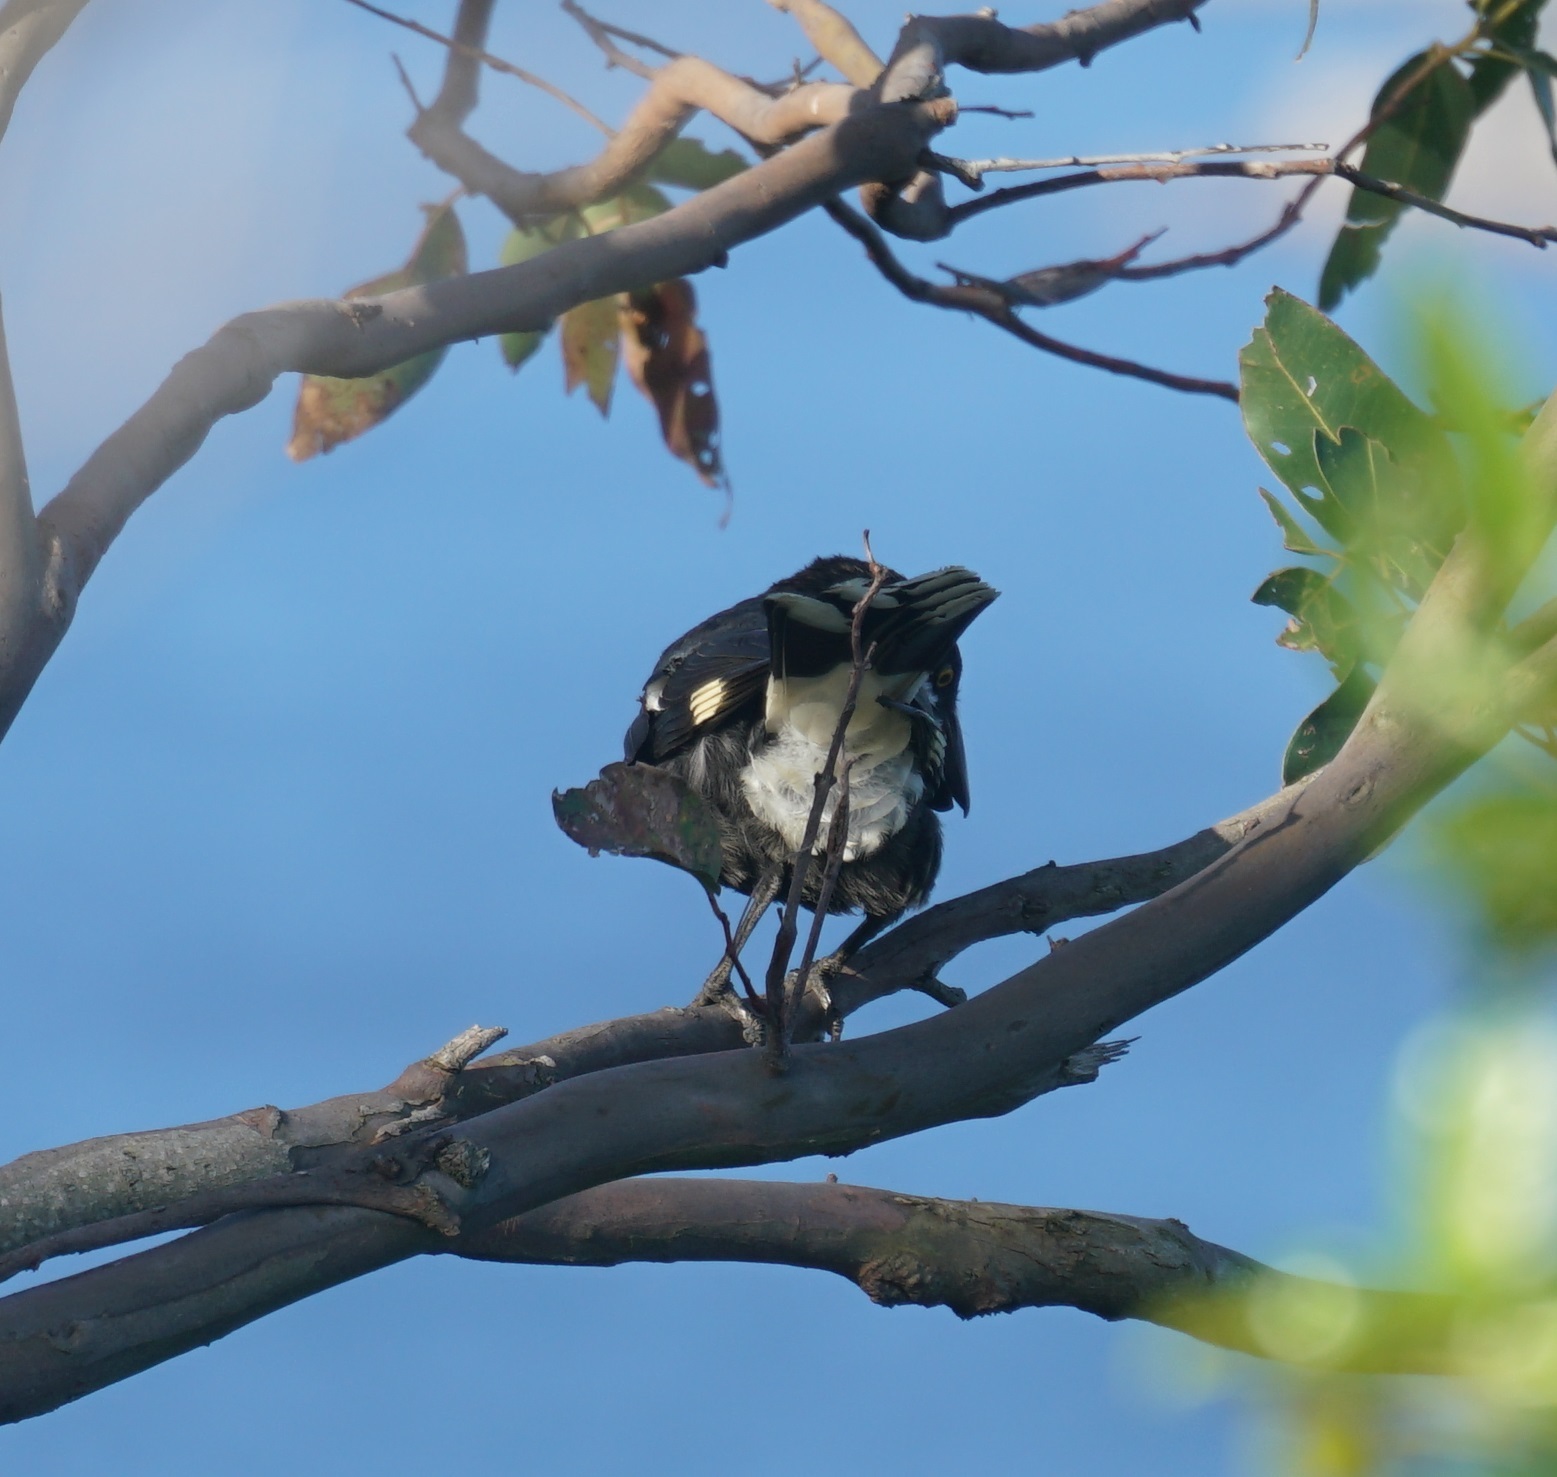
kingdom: Animalia
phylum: Chordata
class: Aves
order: Passeriformes
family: Cracticidae
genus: Strepera
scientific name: Strepera graculina
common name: Pied currawong
